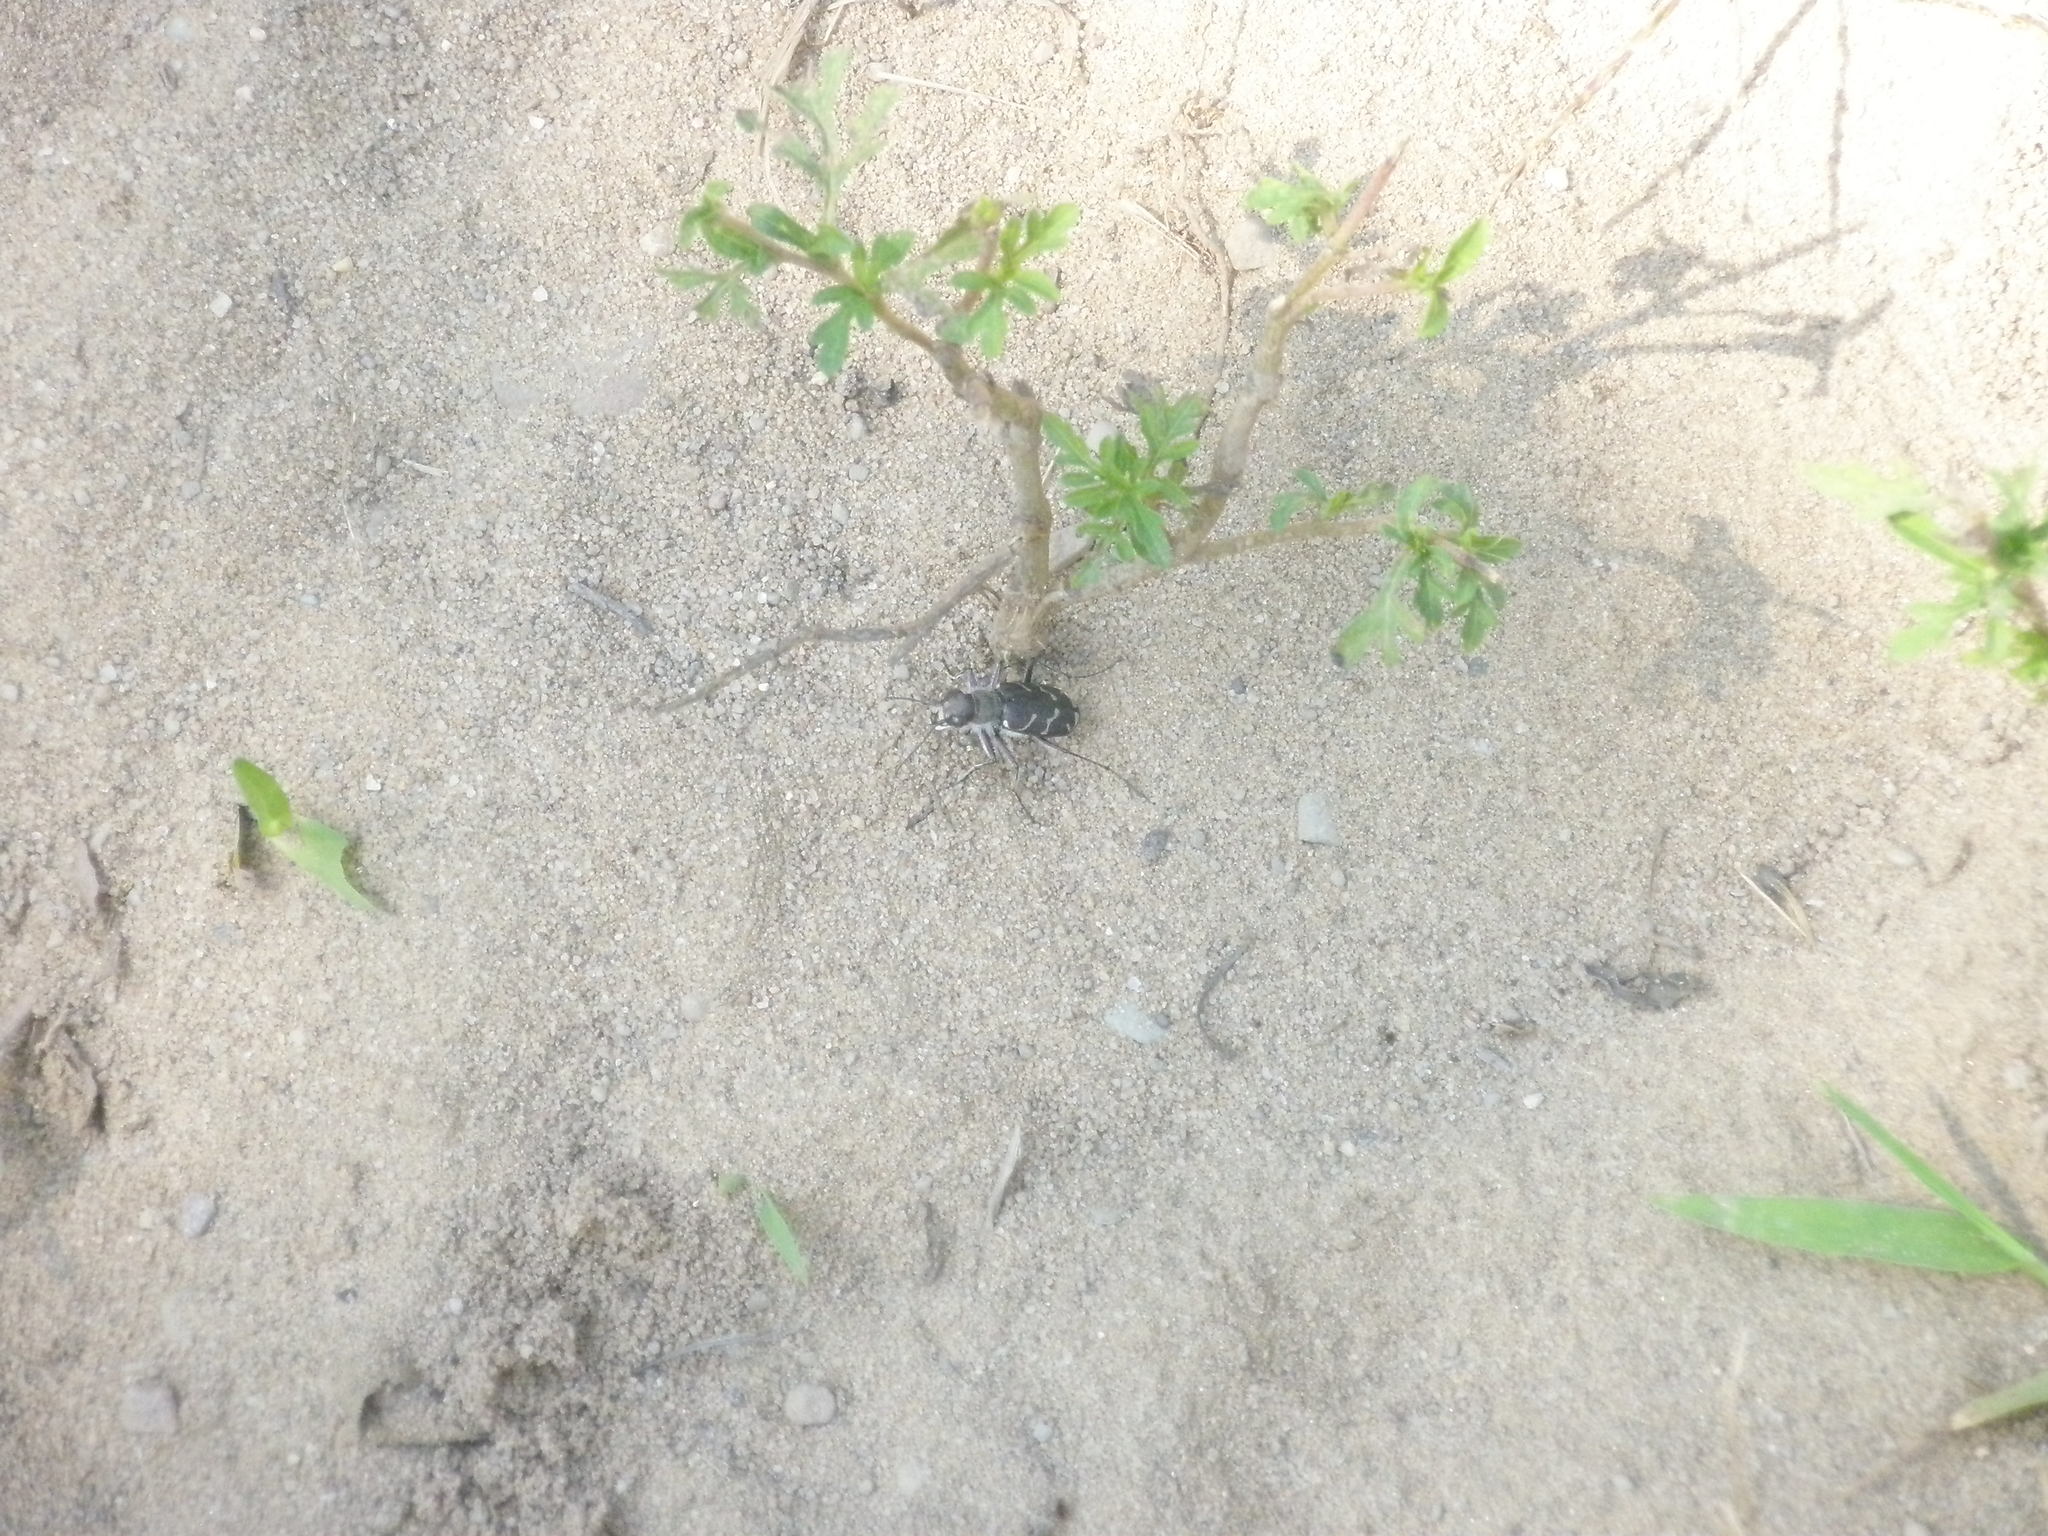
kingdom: Animalia
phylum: Arthropoda
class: Insecta
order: Coleoptera
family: Carabidae
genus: Cicindela
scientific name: Cicindela tranquebarica
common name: Oblique-lined tiger beetle
